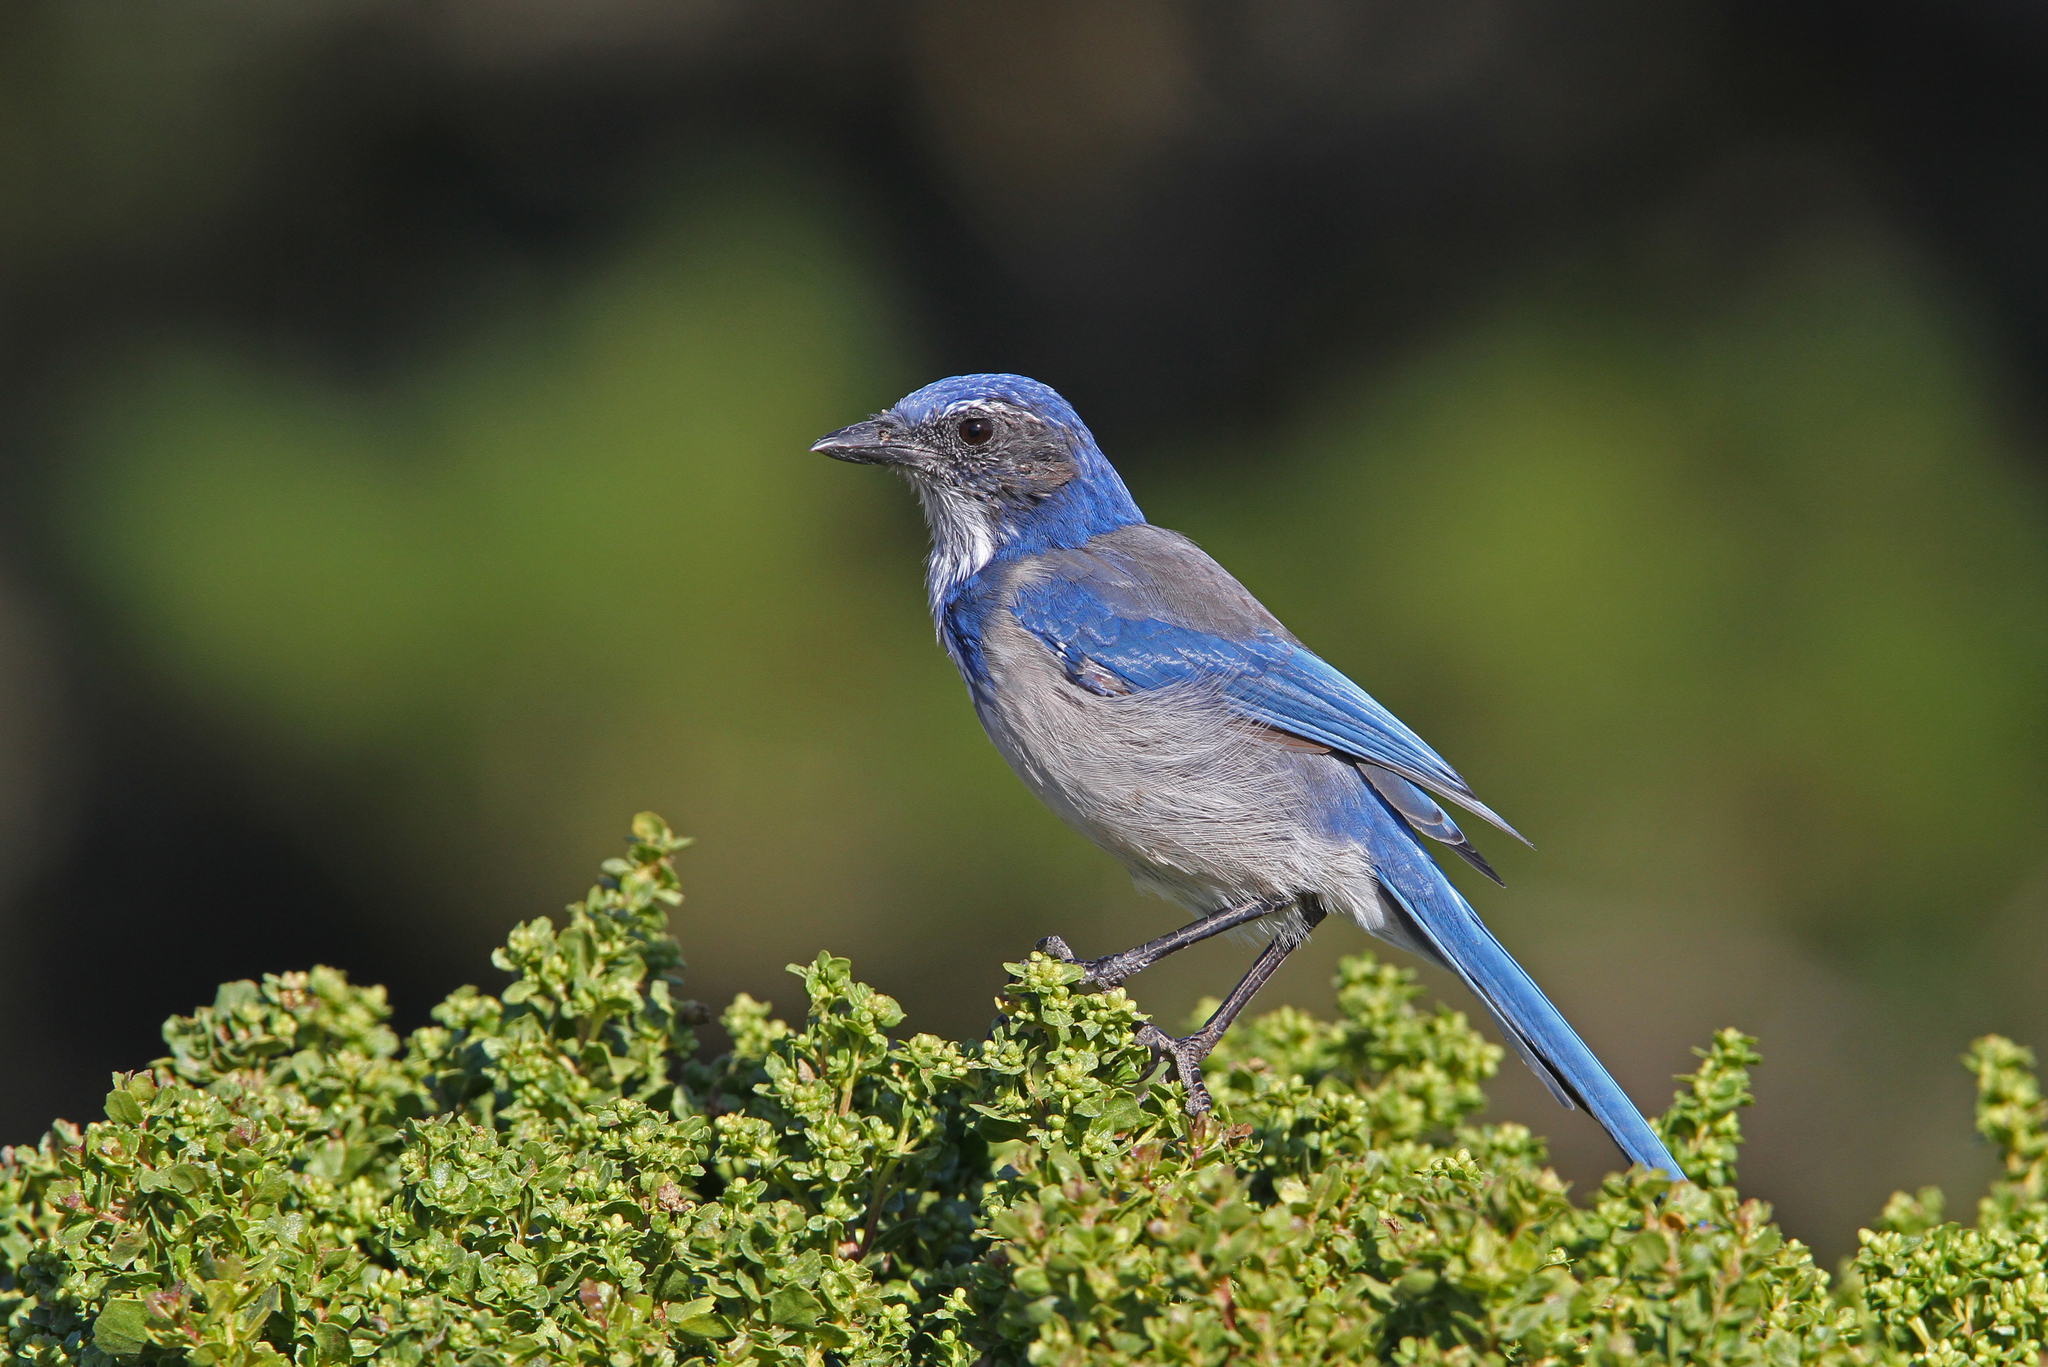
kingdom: Animalia
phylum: Chordata
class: Aves
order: Passeriformes
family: Corvidae
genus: Aphelocoma
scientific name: Aphelocoma californica
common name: California scrub-jay
